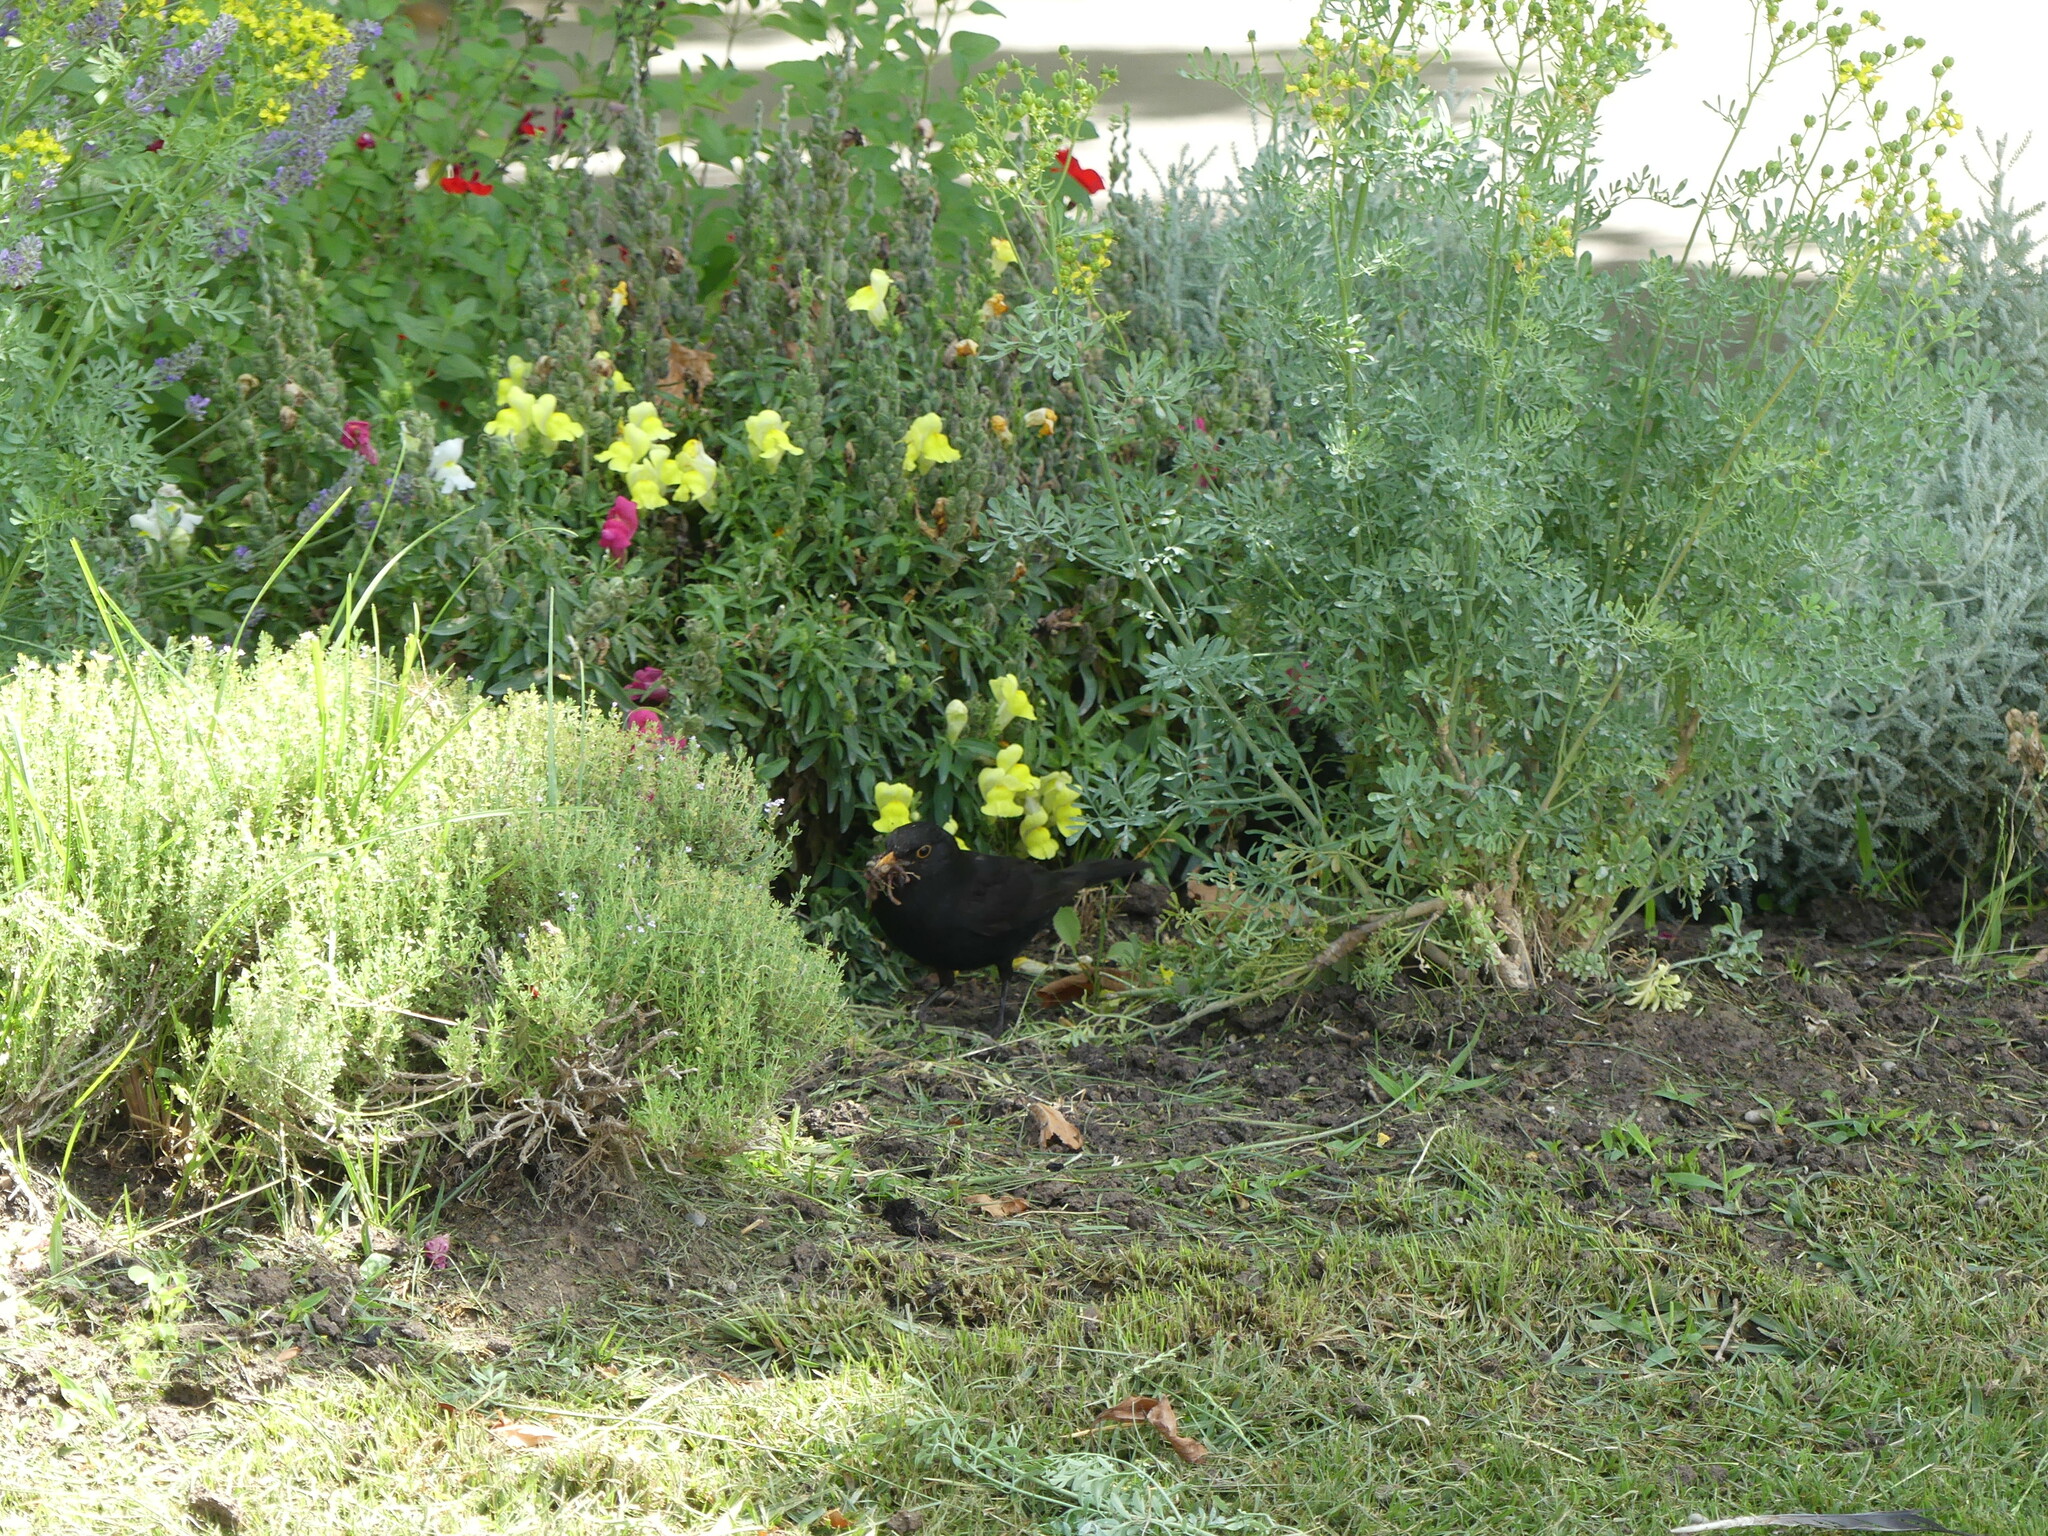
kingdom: Animalia
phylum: Chordata
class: Aves
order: Passeriformes
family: Turdidae
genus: Turdus
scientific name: Turdus merula
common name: Common blackbird
